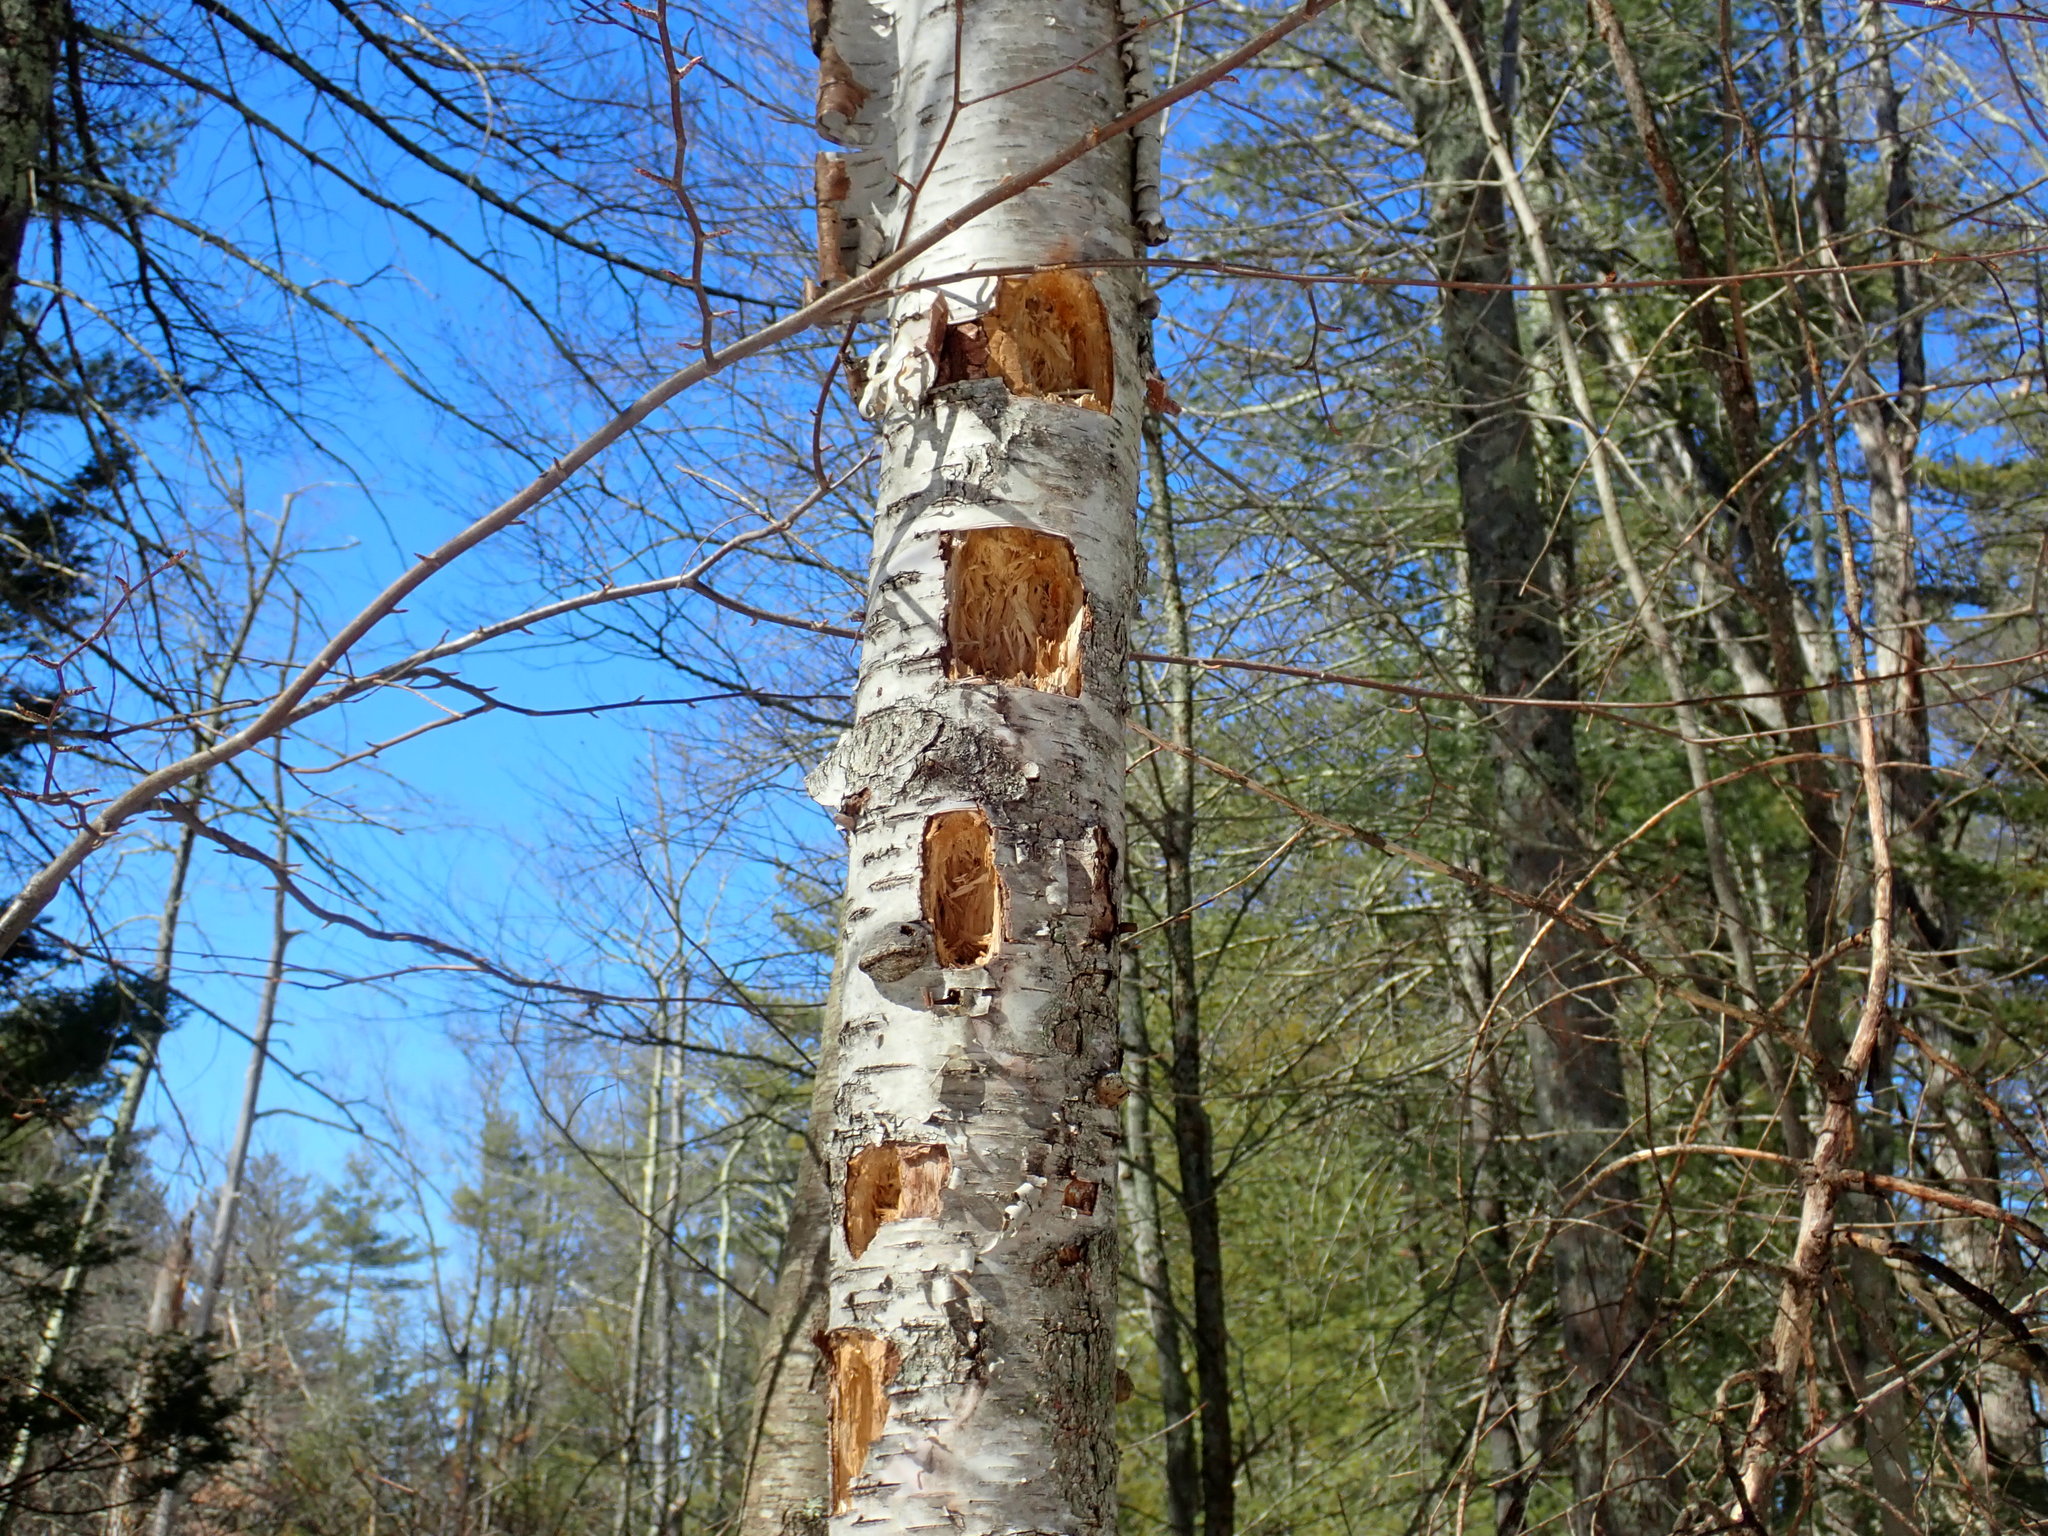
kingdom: Animalia
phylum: Chordata
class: Aves
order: Piciformes
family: Picidae
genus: Dryocopus
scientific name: Dryocopus pileatus
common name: Pileated woodpecker
